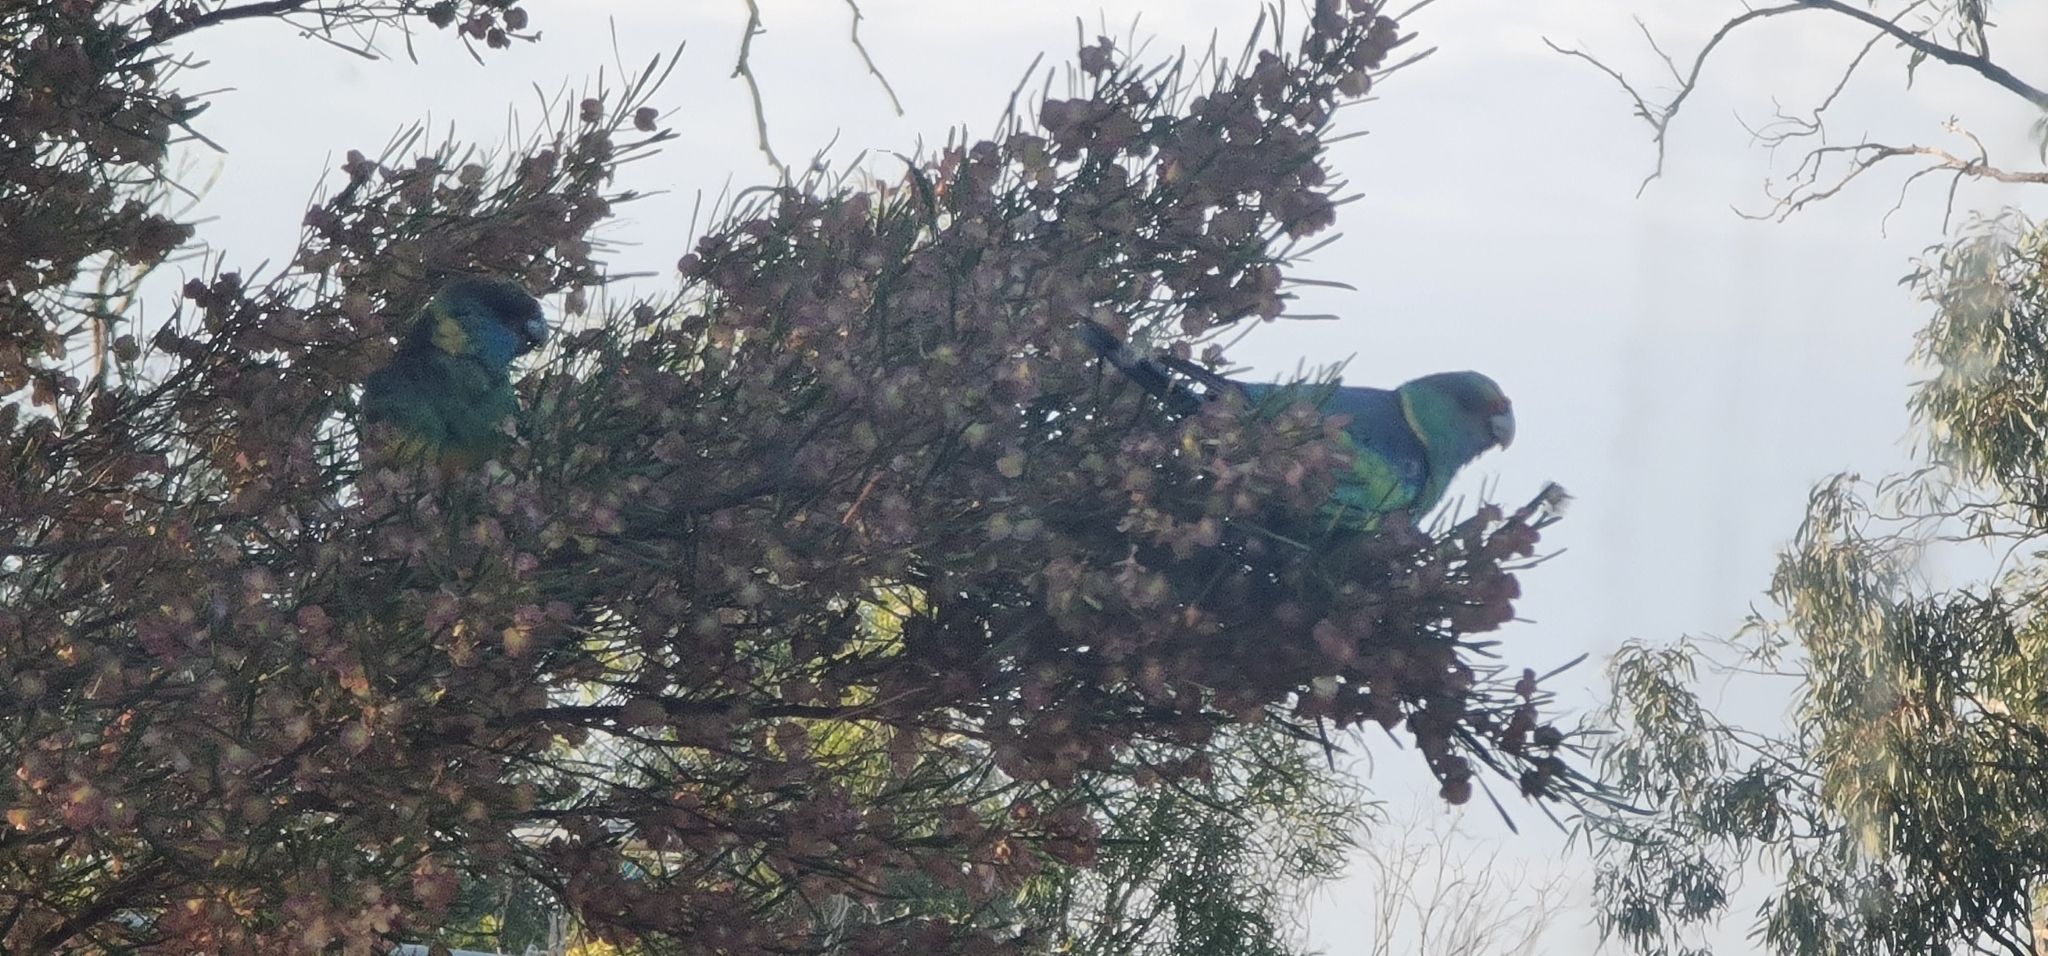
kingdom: Animalia
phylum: Chordata
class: Aves
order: Psittaciformes
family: Psittacidae
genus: Barnardius
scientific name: Barnardius zonarius
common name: Australian ringneck
